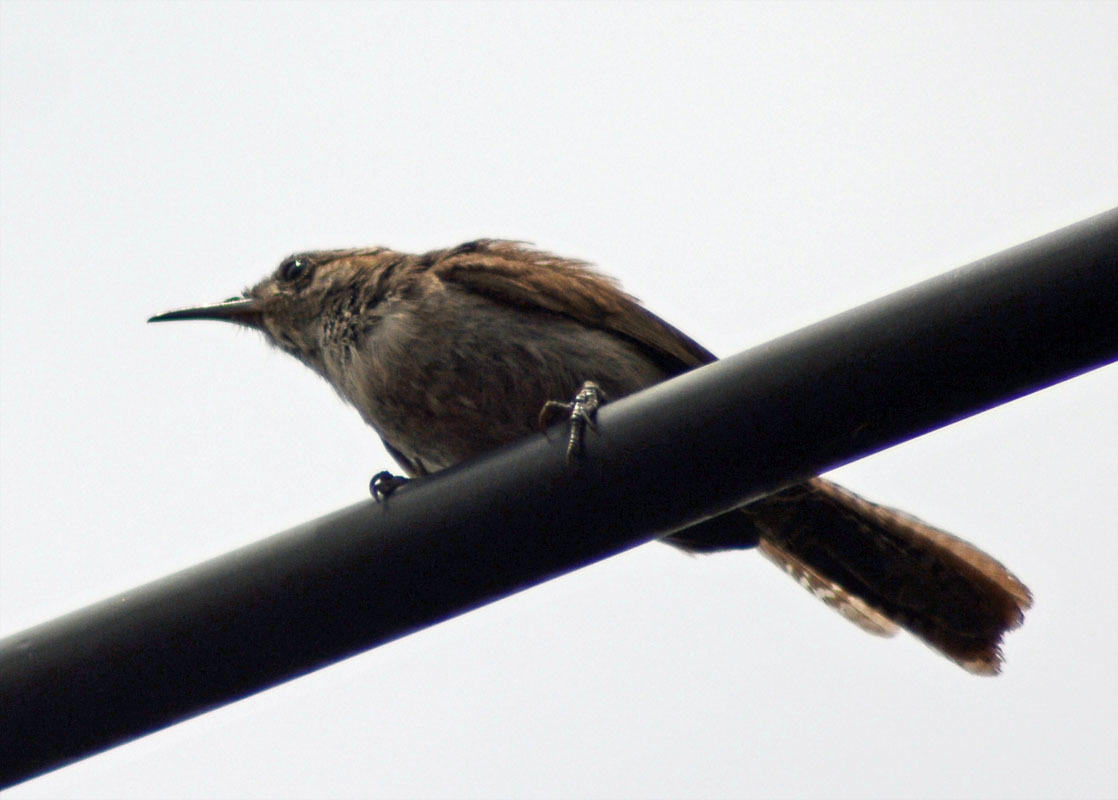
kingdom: Animalia
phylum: Chordata
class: Aves
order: Passeriformes
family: Troglodytidae
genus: Thryomanes
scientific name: Thryomanes bewickii
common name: Bewick's wren
